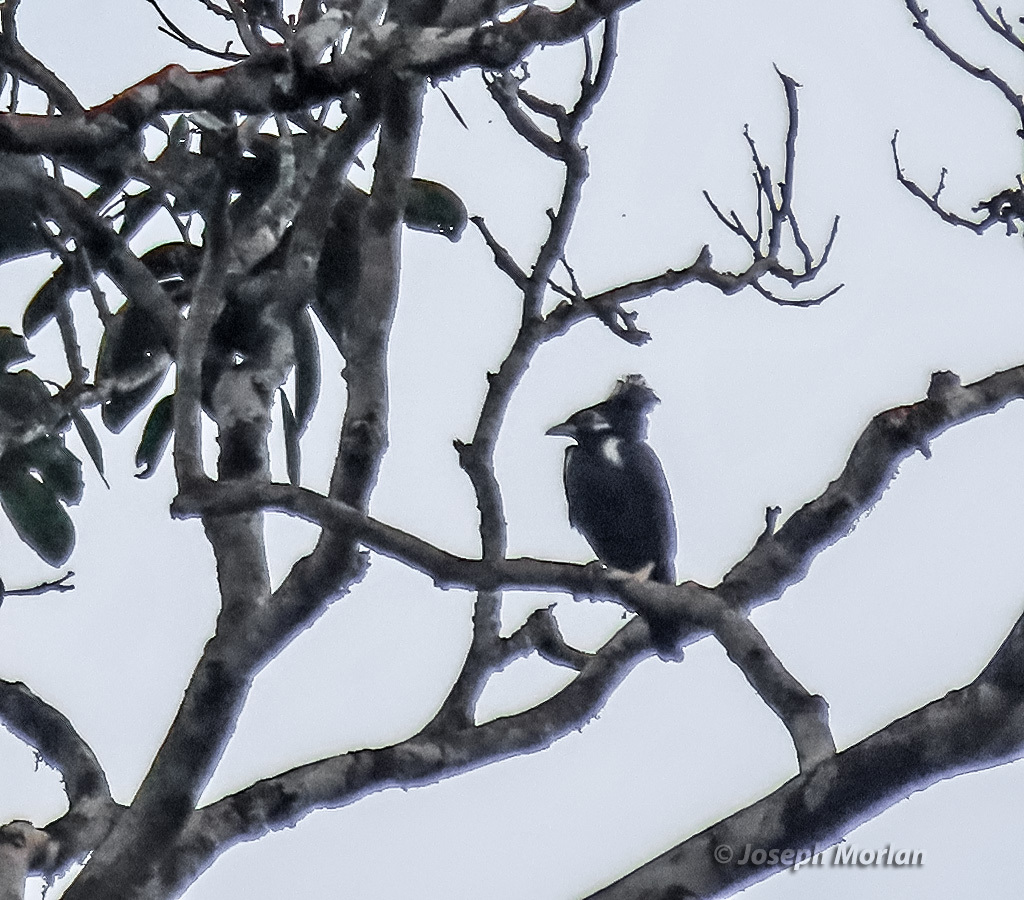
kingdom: Animalia
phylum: Chordata
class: Aves
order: Passeriformes
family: Sturnidae
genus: Basilornis
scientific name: Basilornis corythaix
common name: Long-crested myna
